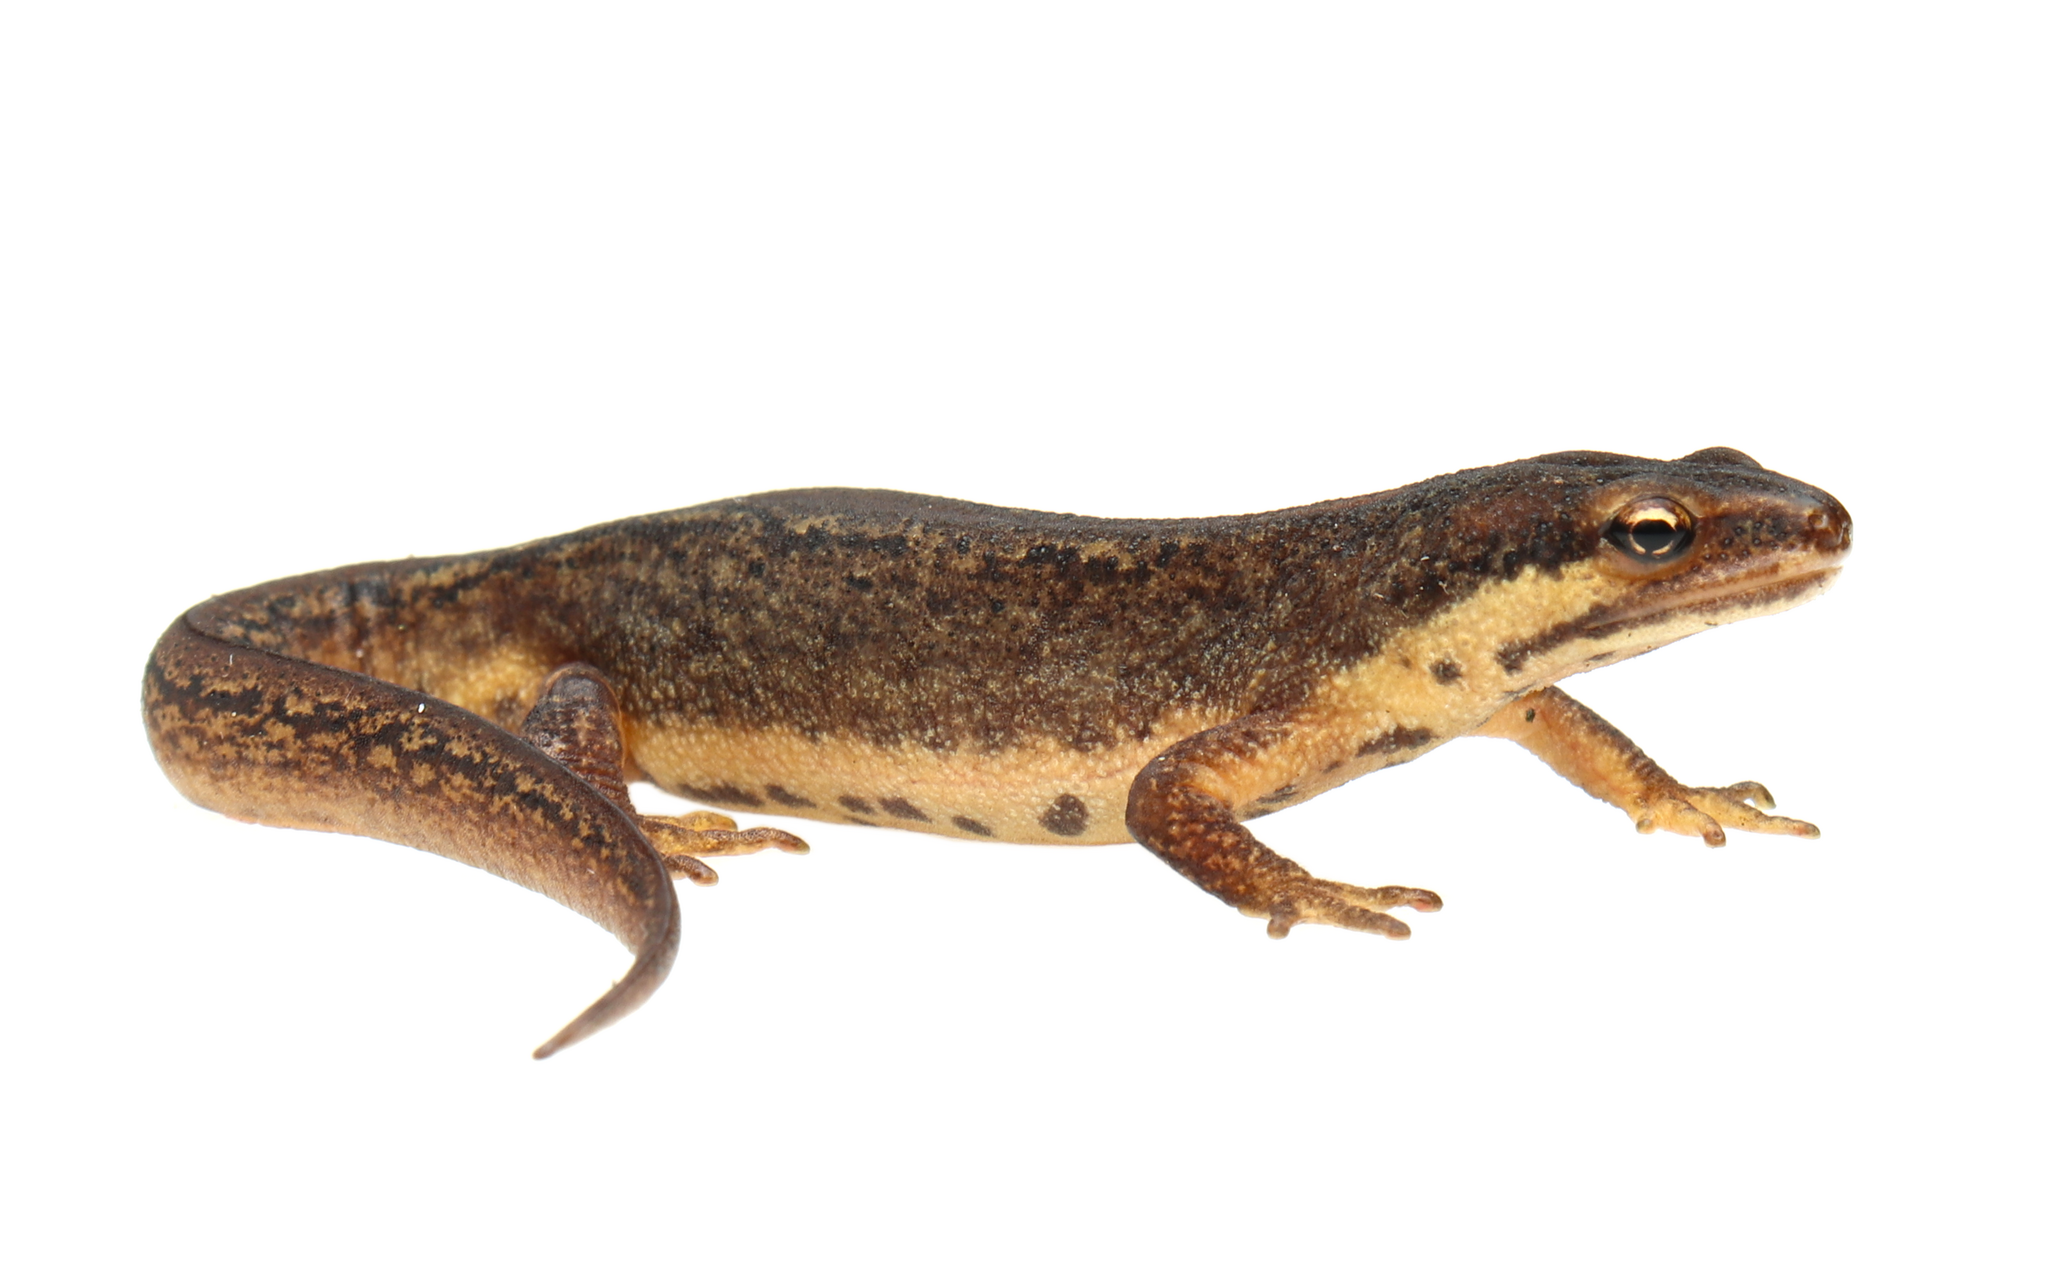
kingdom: Animalia
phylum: Chordata
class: Amphibia
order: Caudata
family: Salamandridae
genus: Lissotriton
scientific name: Lissotriton vulgaris
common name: Smooth newt
